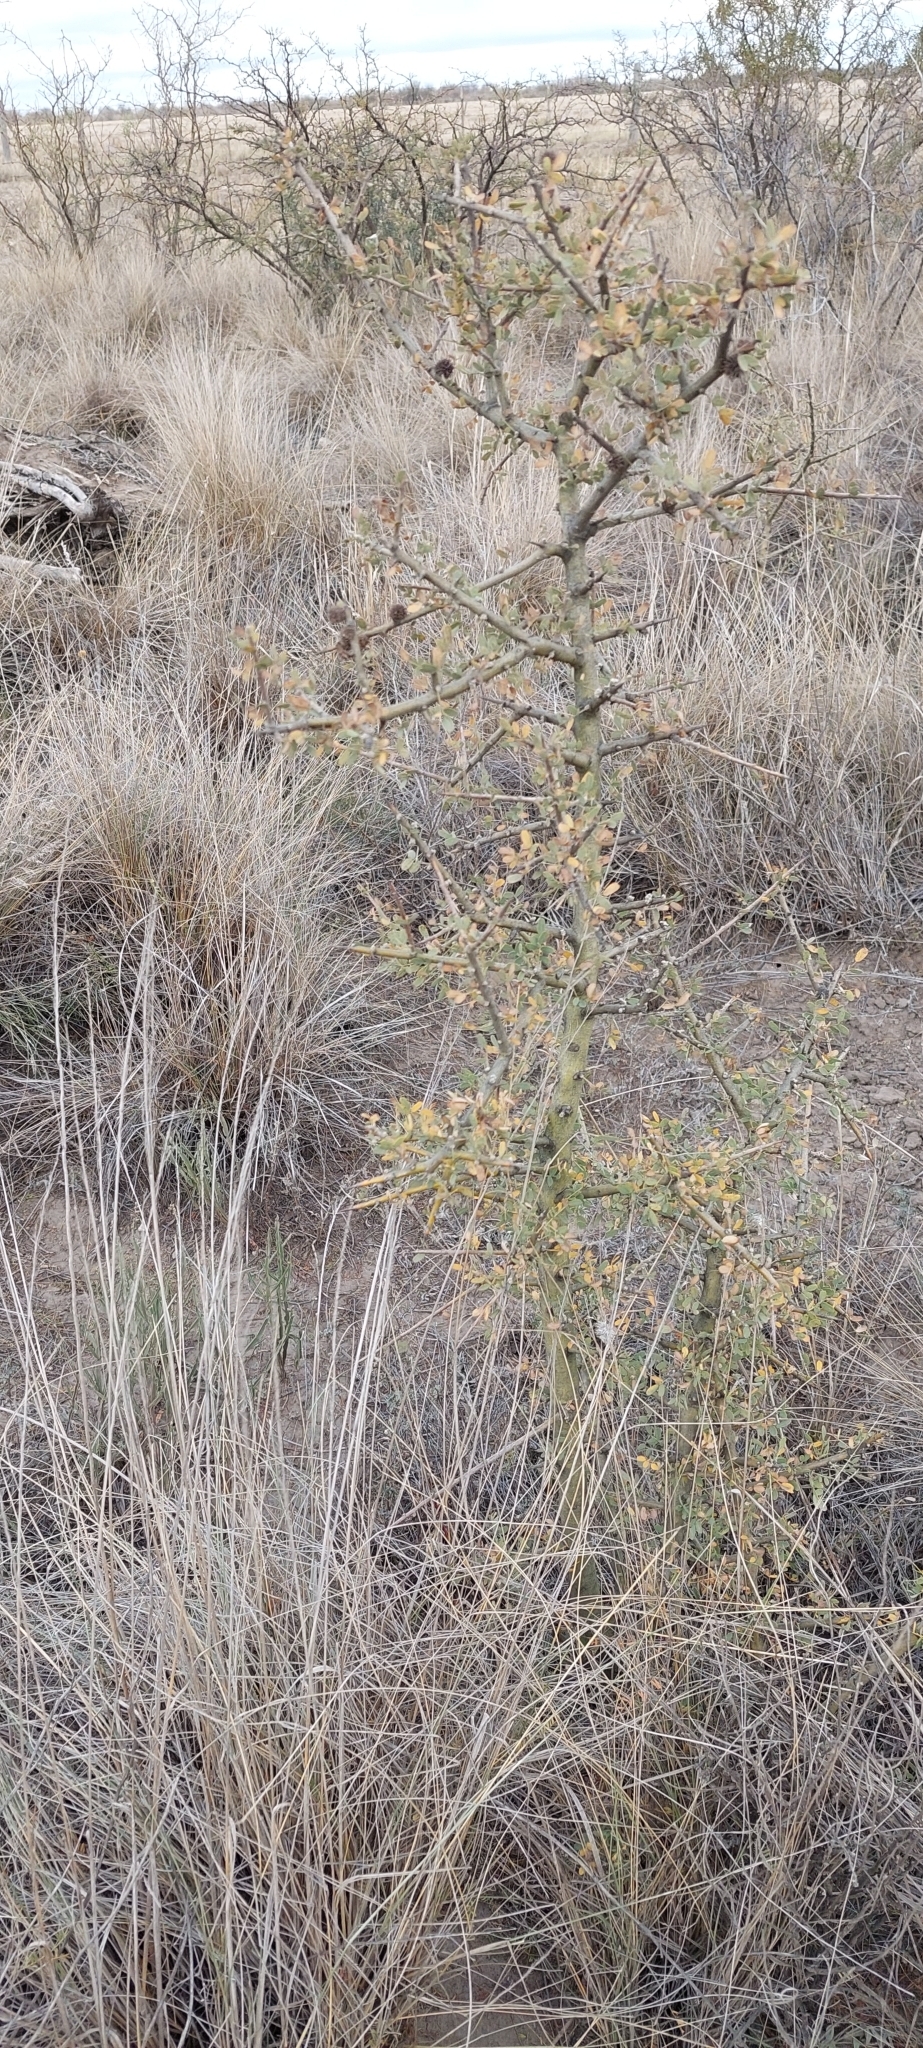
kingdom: Plantae
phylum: Tracheophyta
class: Magnoliopsida
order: Fabales
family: Fabaceae
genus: Geoffroea
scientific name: Geoffroea decorticans
